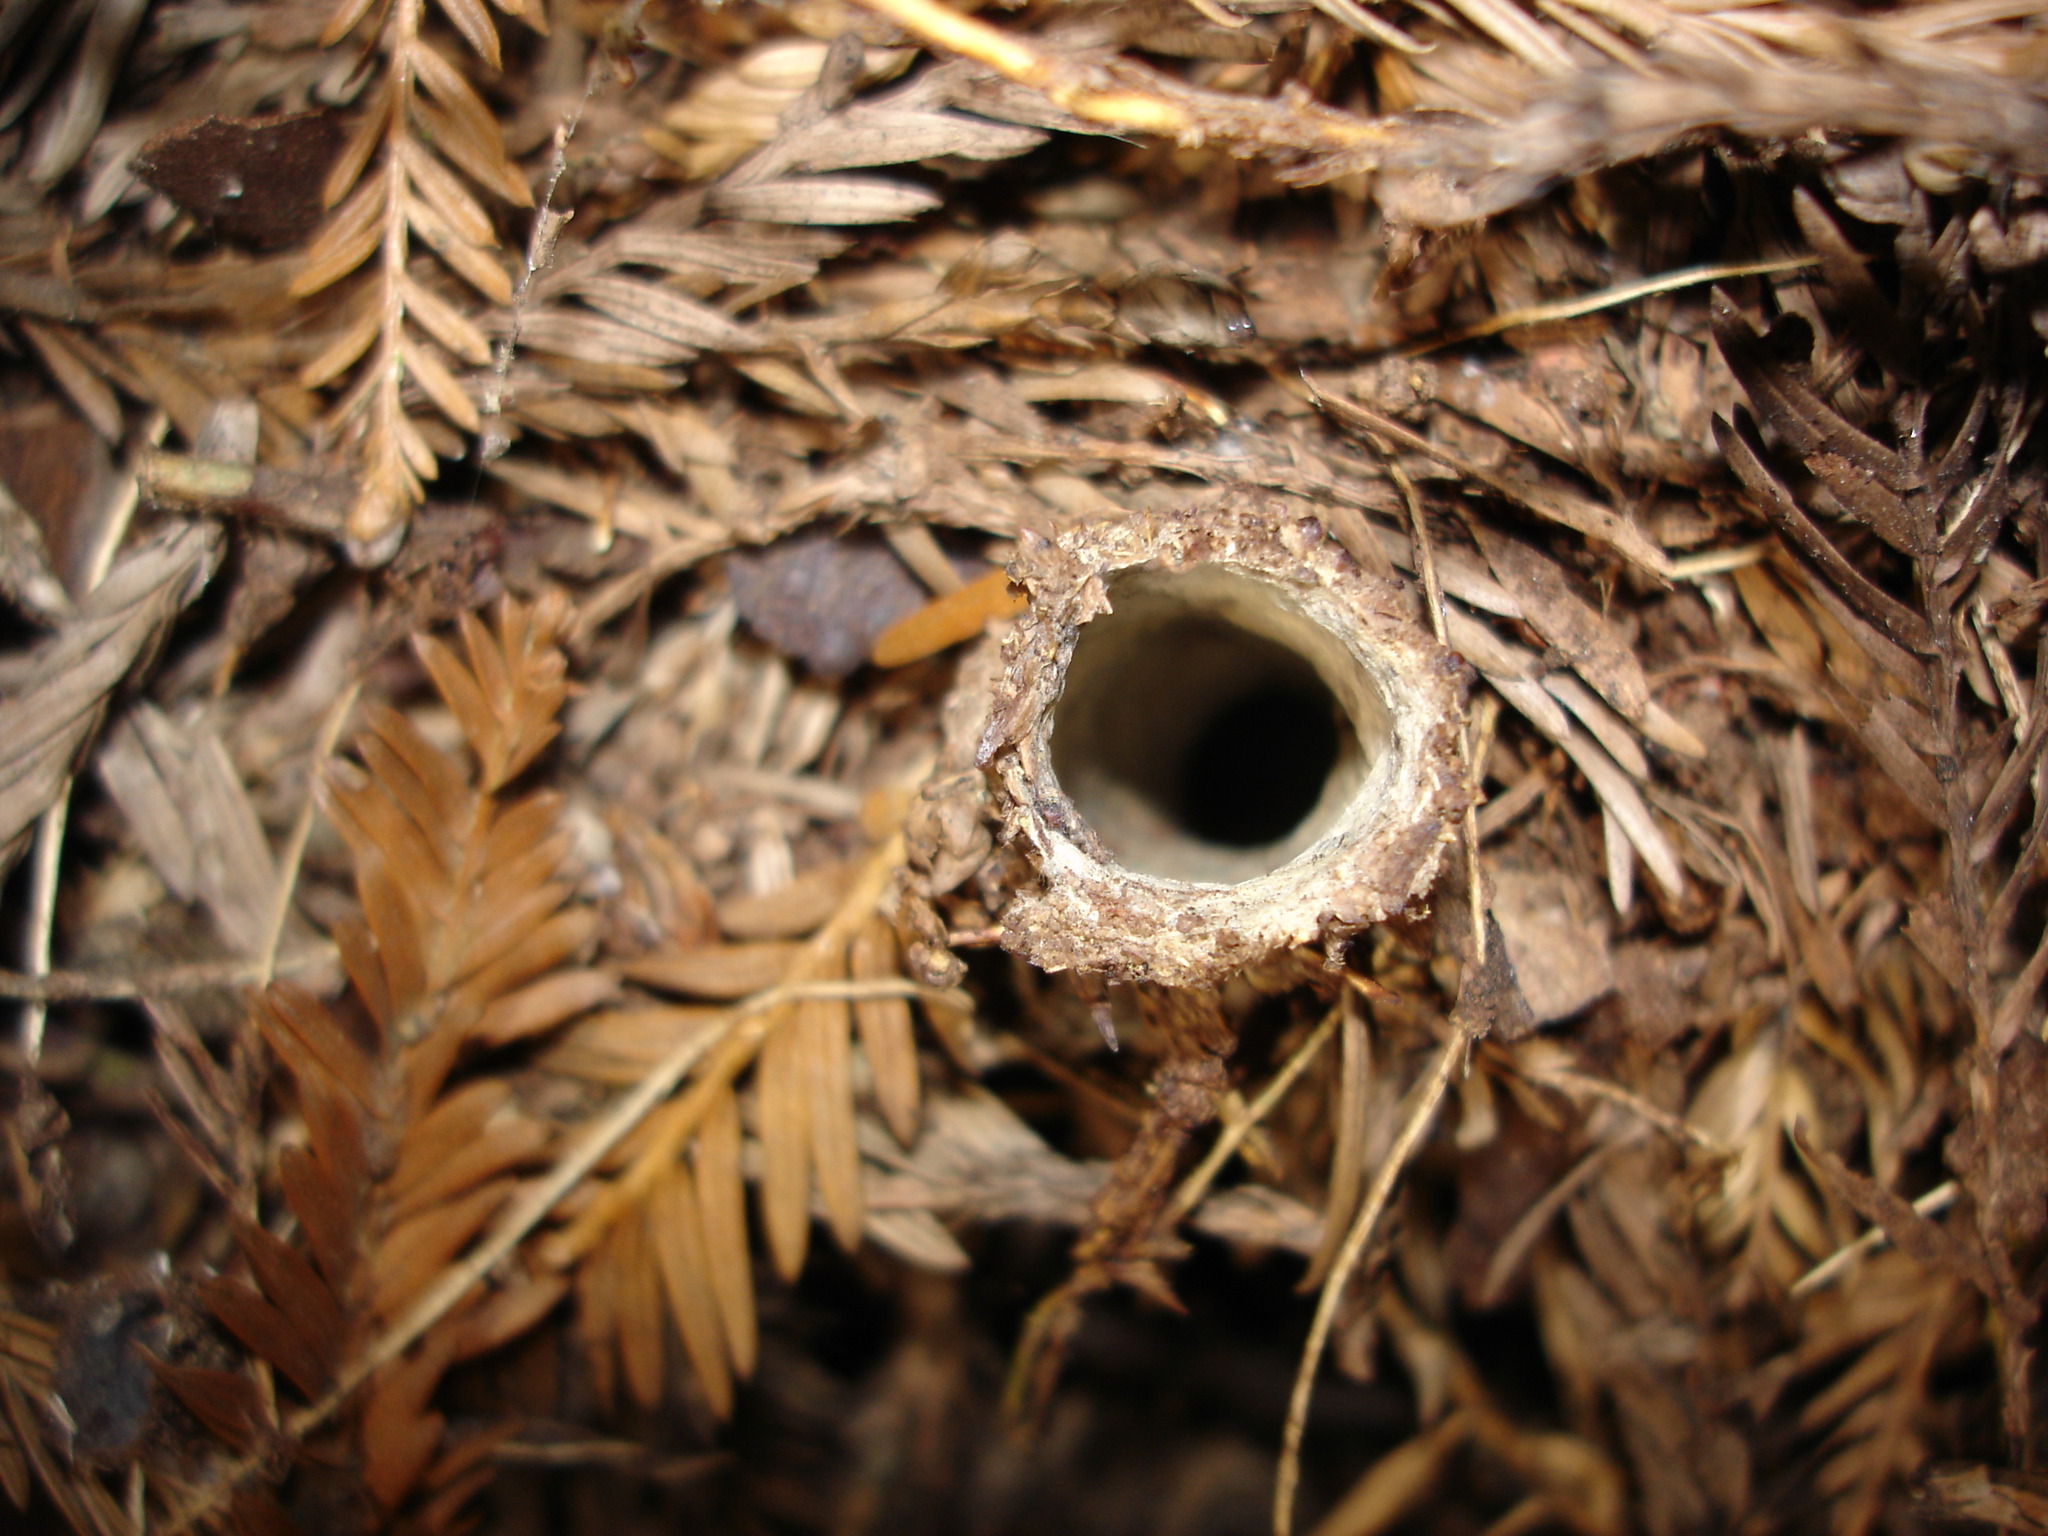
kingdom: Animalia
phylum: Arthropoda
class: Arachnida
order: Araneae
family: Antrodiaetidae
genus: Atypoides
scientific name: Atypoides riversi
